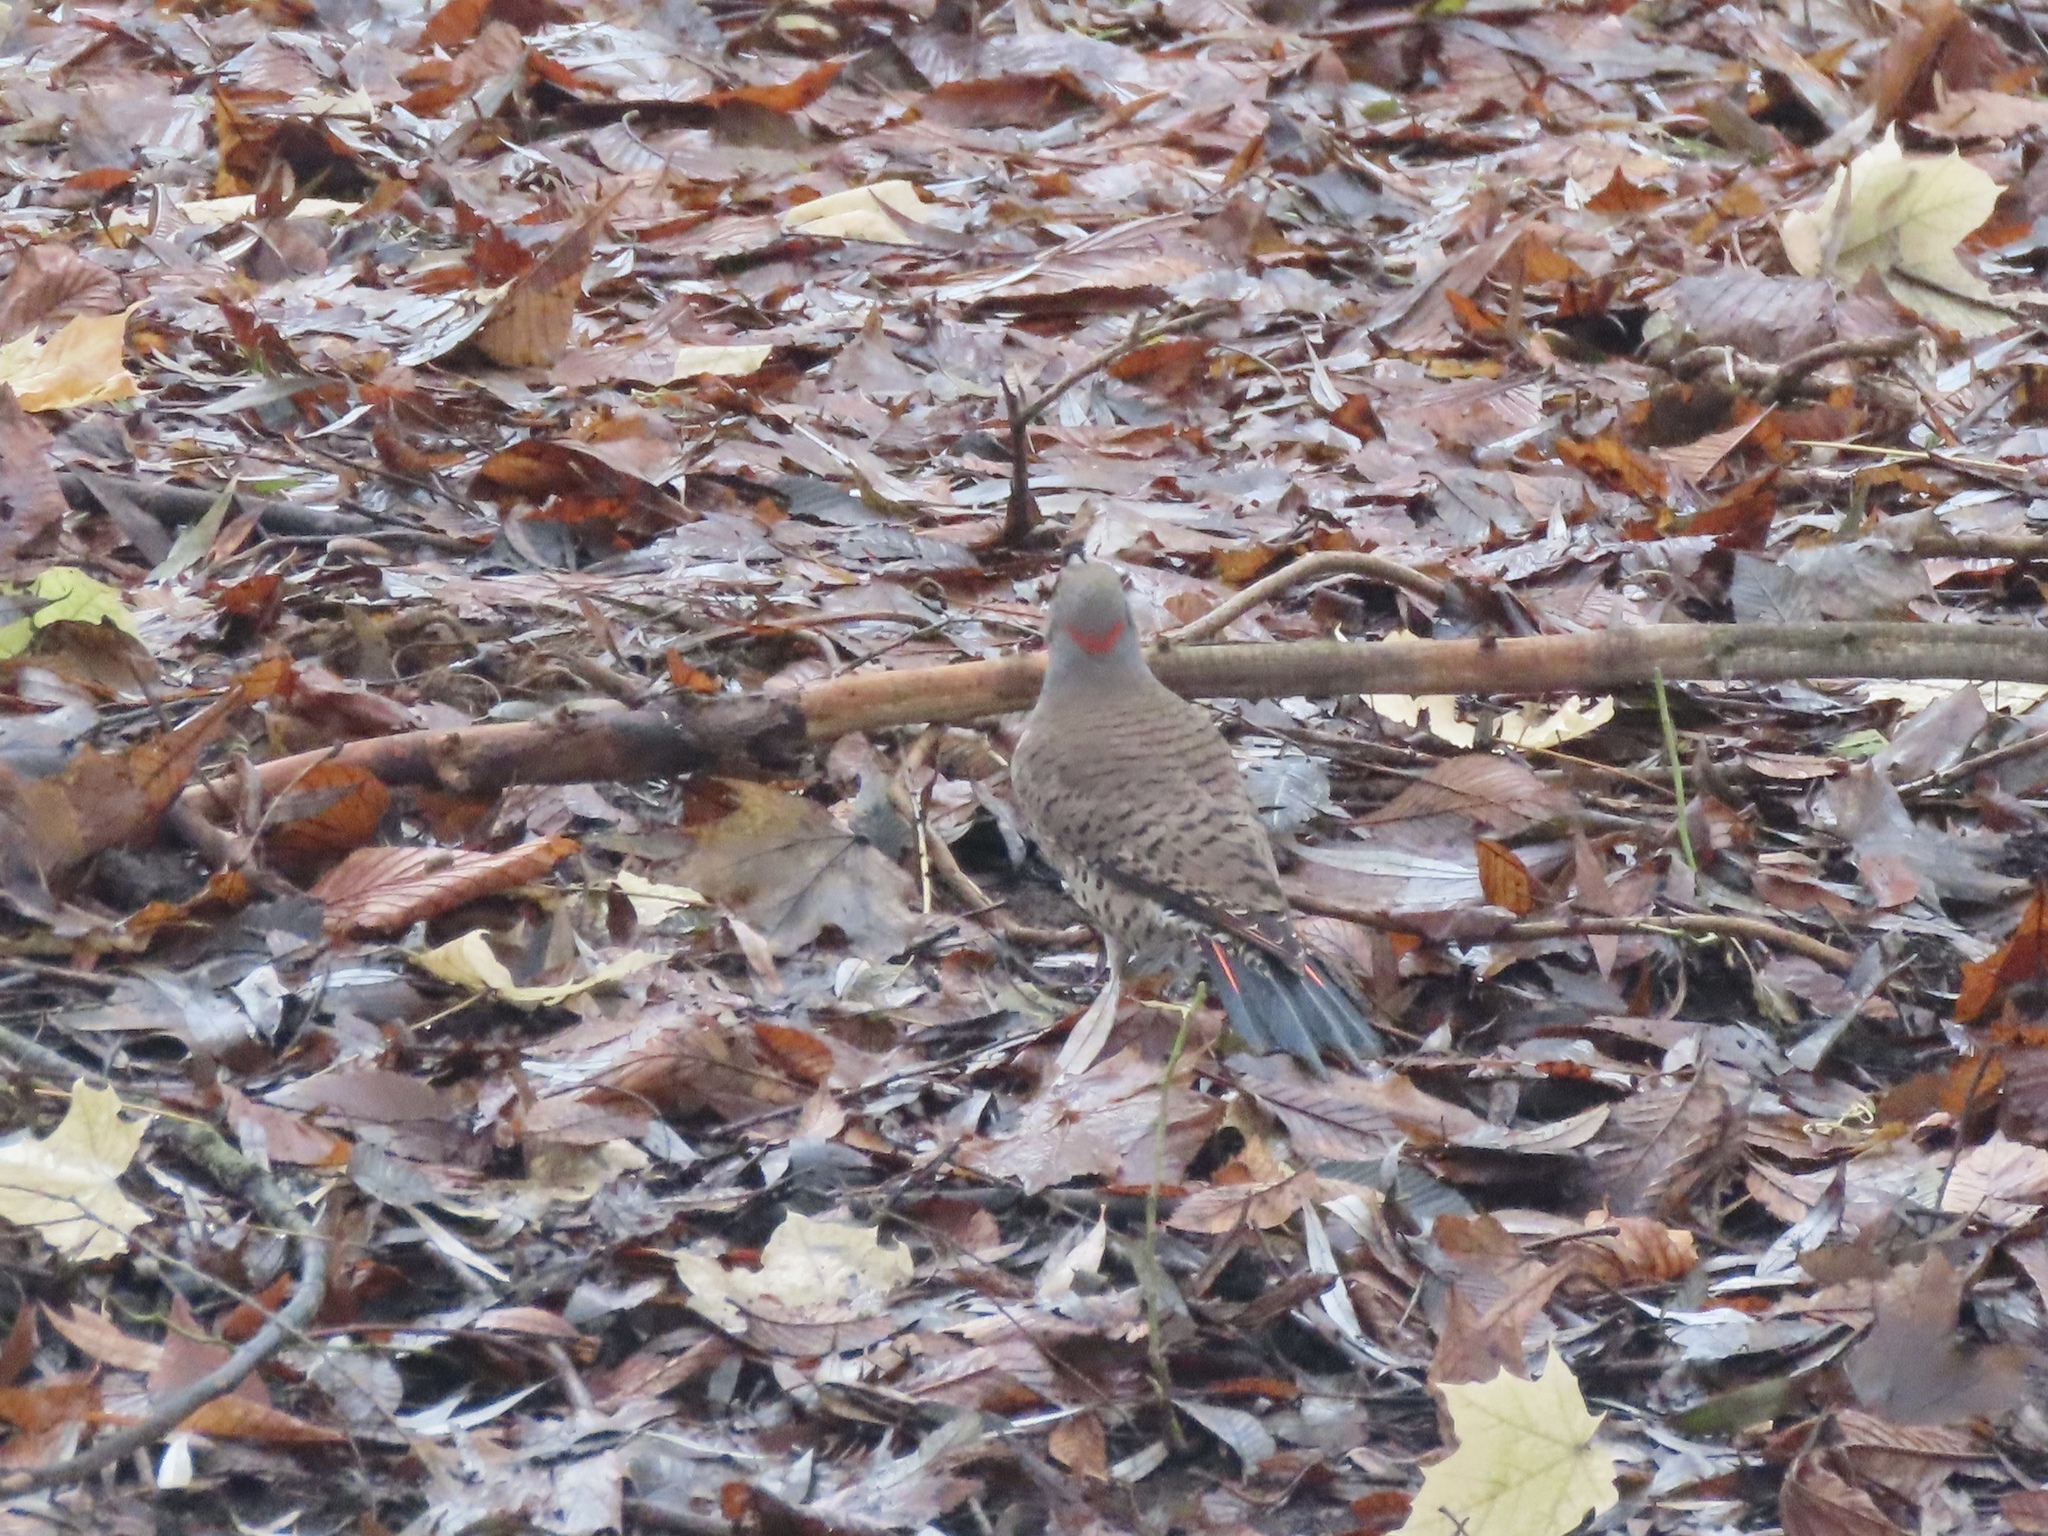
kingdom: Animalia
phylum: Chordata
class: Aves
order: Piciformes
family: Picidae
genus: Colaptes
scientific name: Colaptes auratus
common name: Northern flicker
